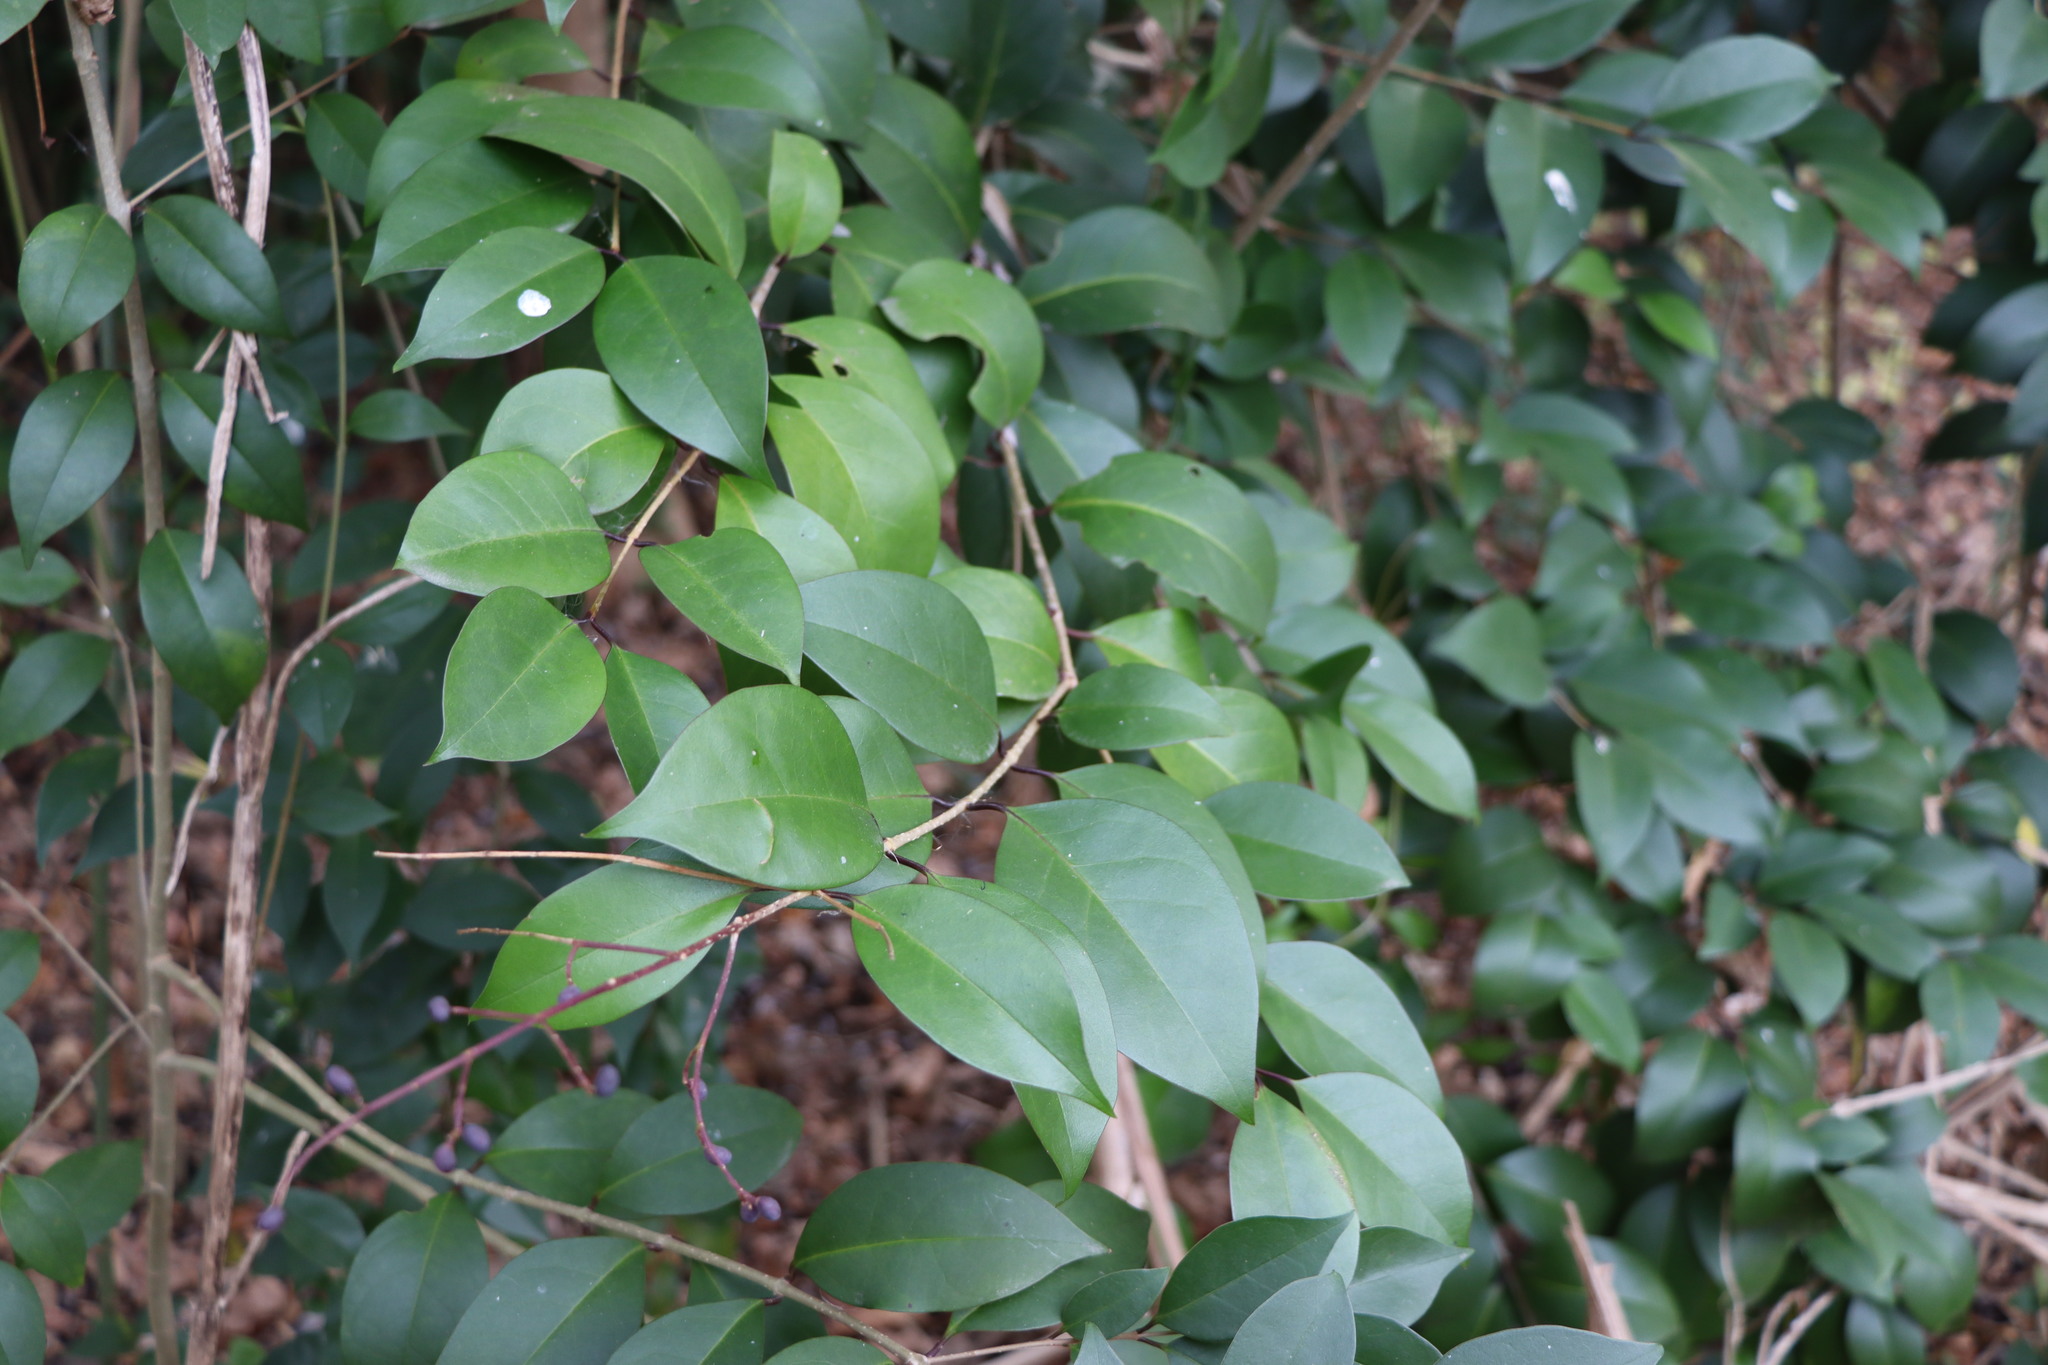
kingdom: Plantae
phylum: Tracheophyta
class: Magnoliopsida
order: Lamiales
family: Oleaceae
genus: Ligustrum
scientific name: Ligustrum lucidum
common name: Glossy privet
